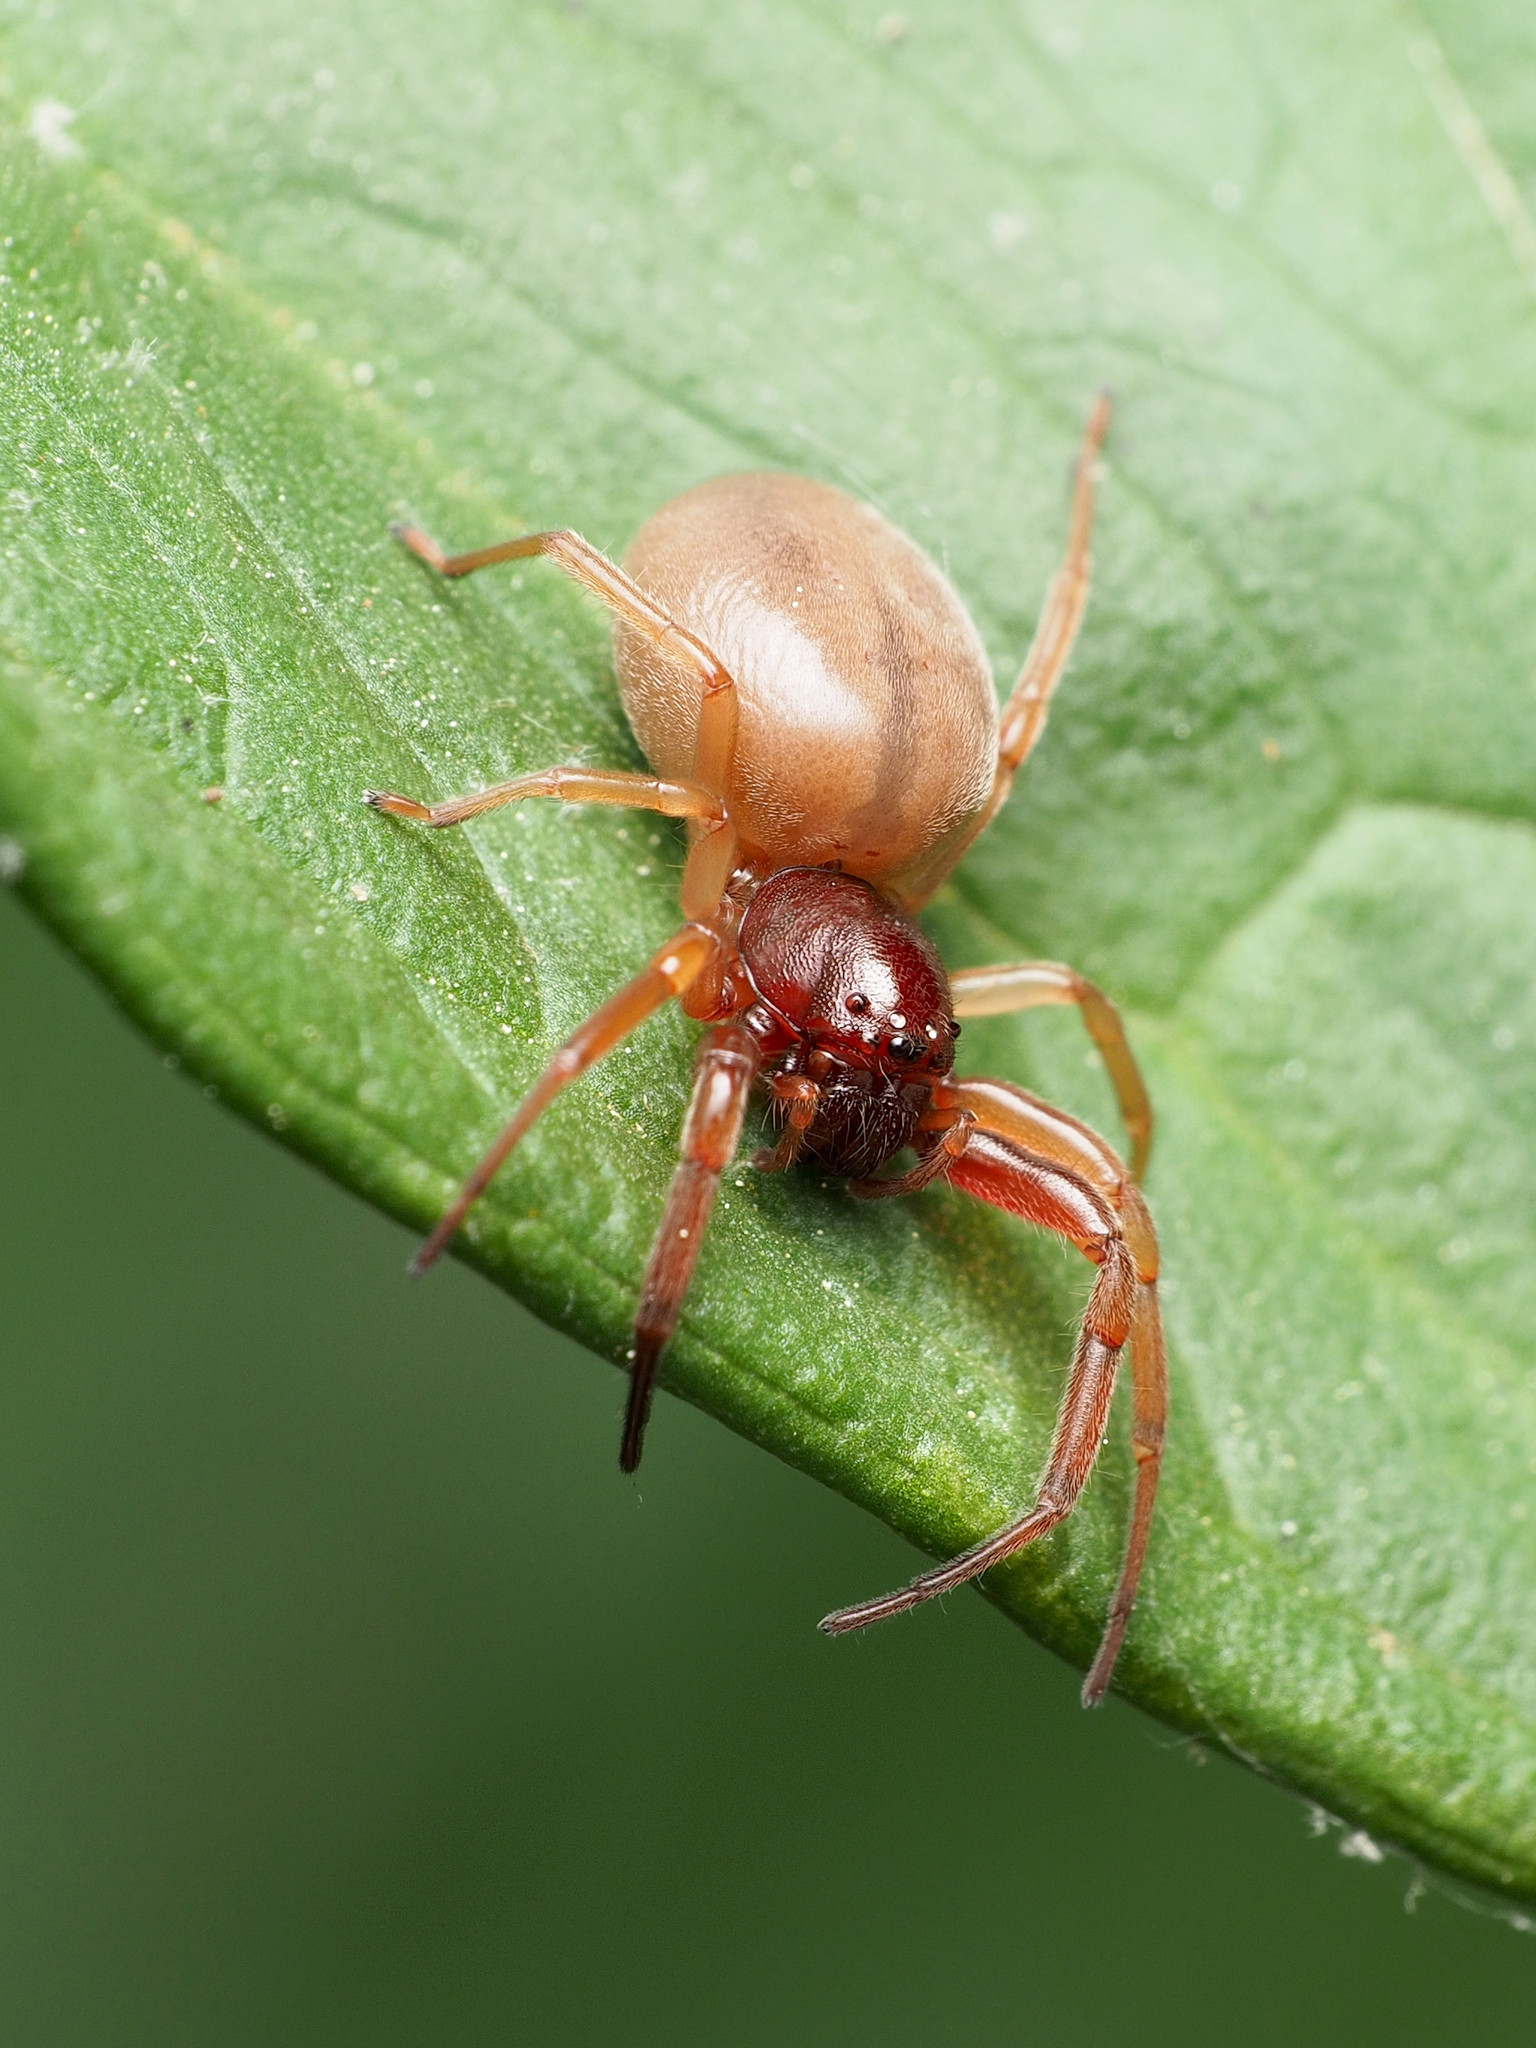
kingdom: Animalia
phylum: Arthropoda
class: Arachnida
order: Araneae
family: Trachelidae
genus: Trachelas
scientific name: Trachelas tranquillus
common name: Broad-faced sac spider
